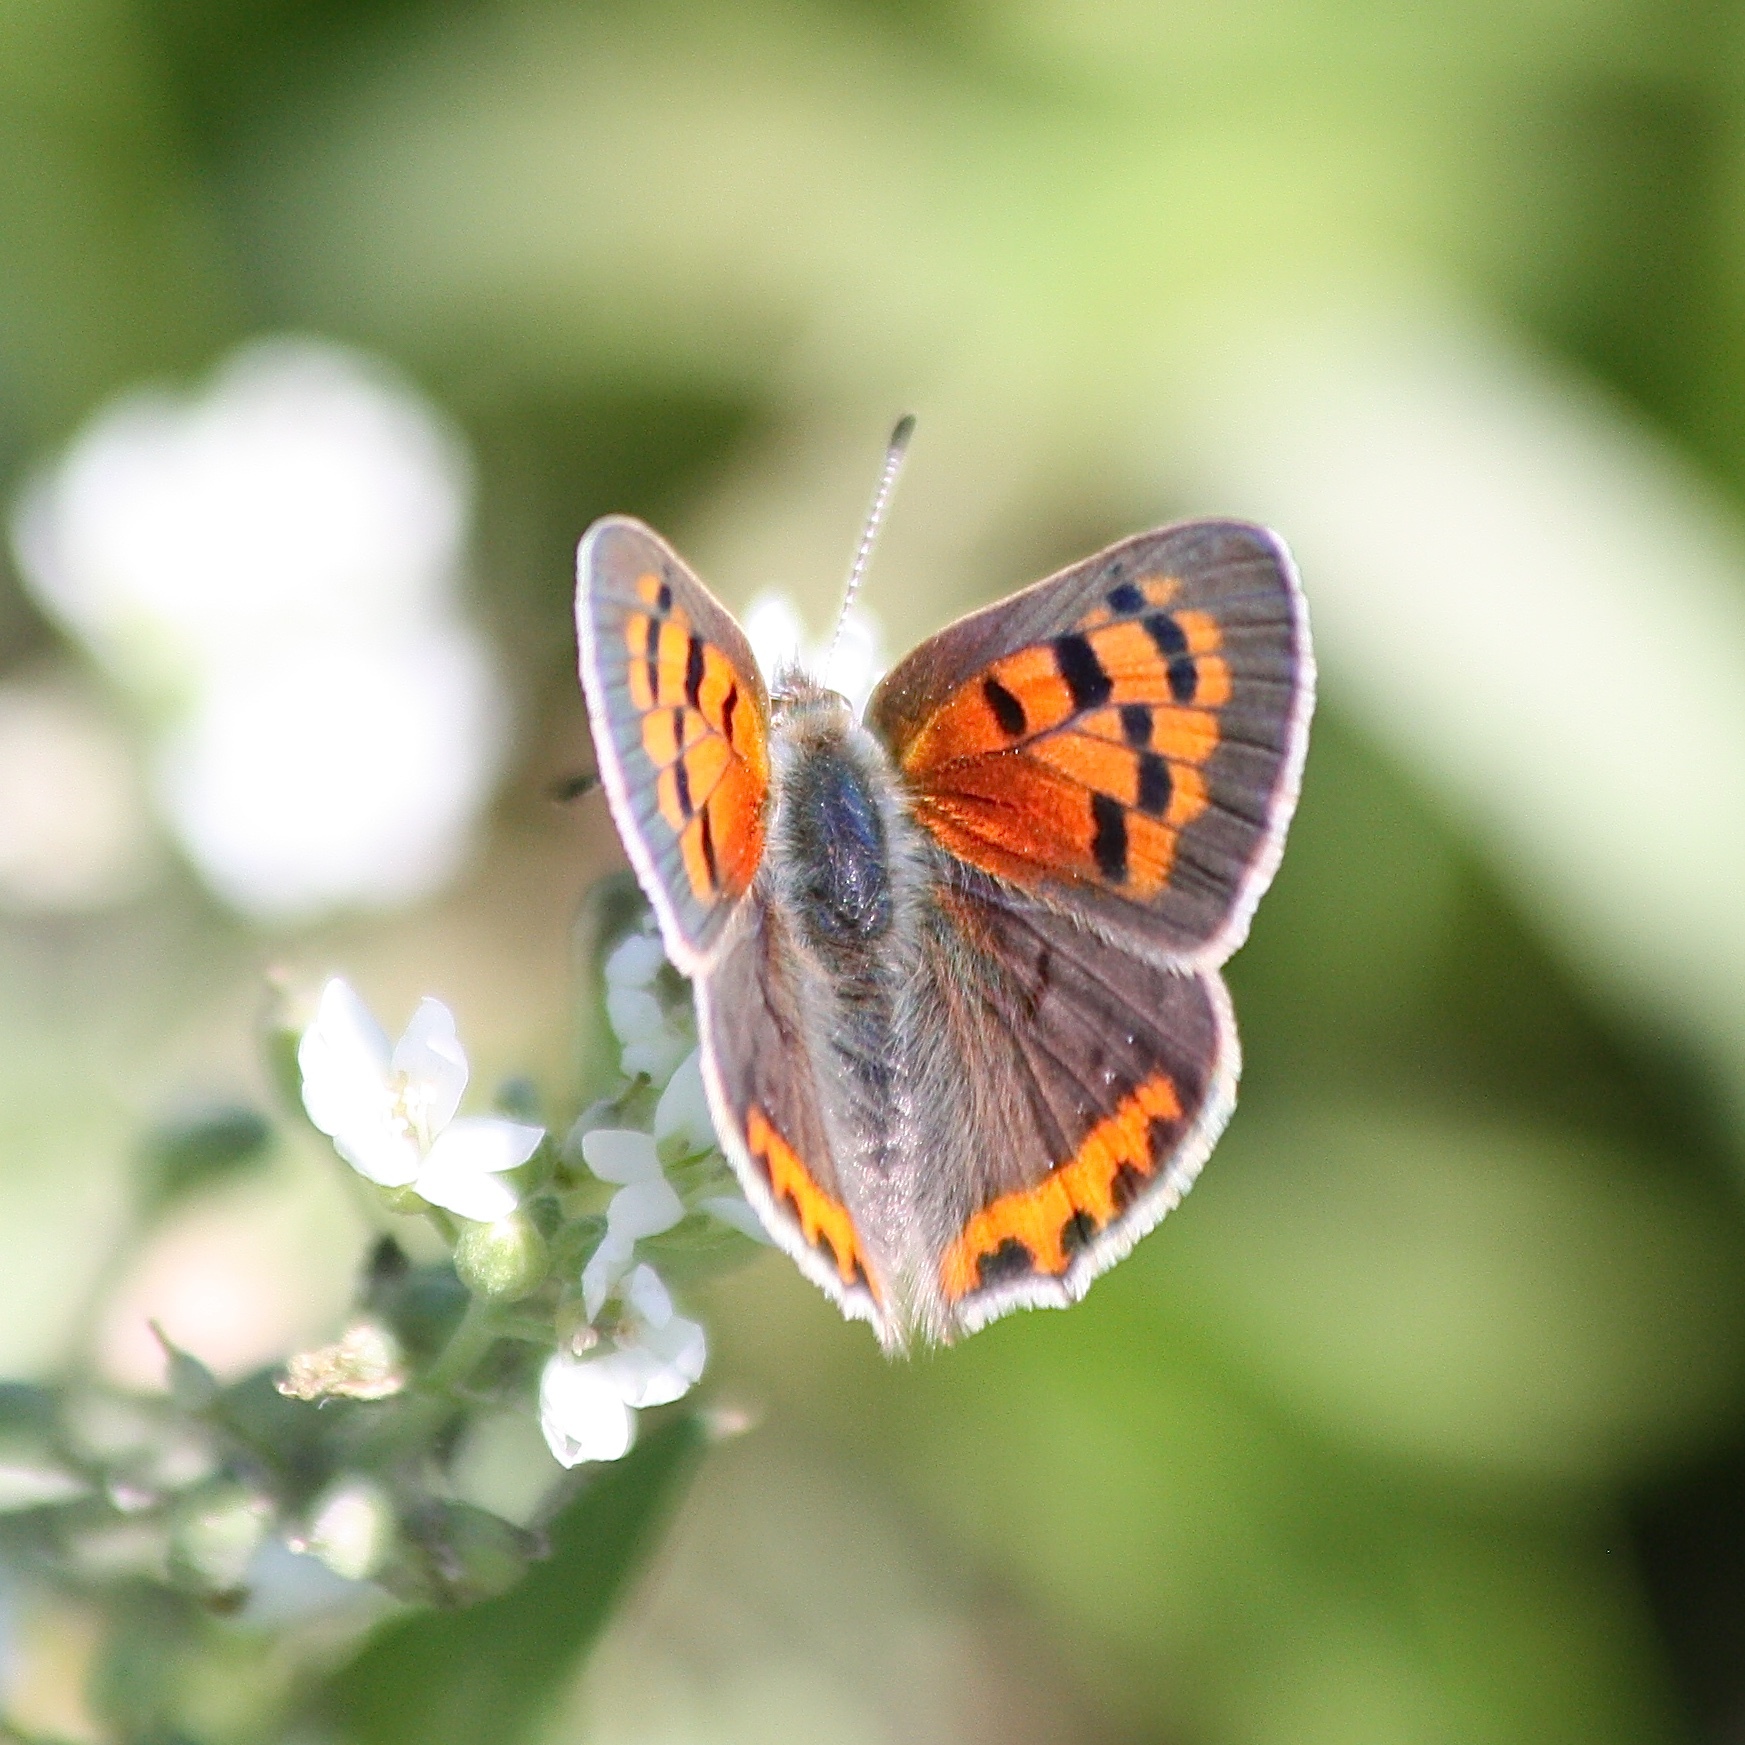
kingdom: Animalia
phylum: Arthropoda
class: Insecta
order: Lepidoptera
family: Lycaenidae
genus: Lycaena
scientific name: Lycaena hypophlaeas
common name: American copper
